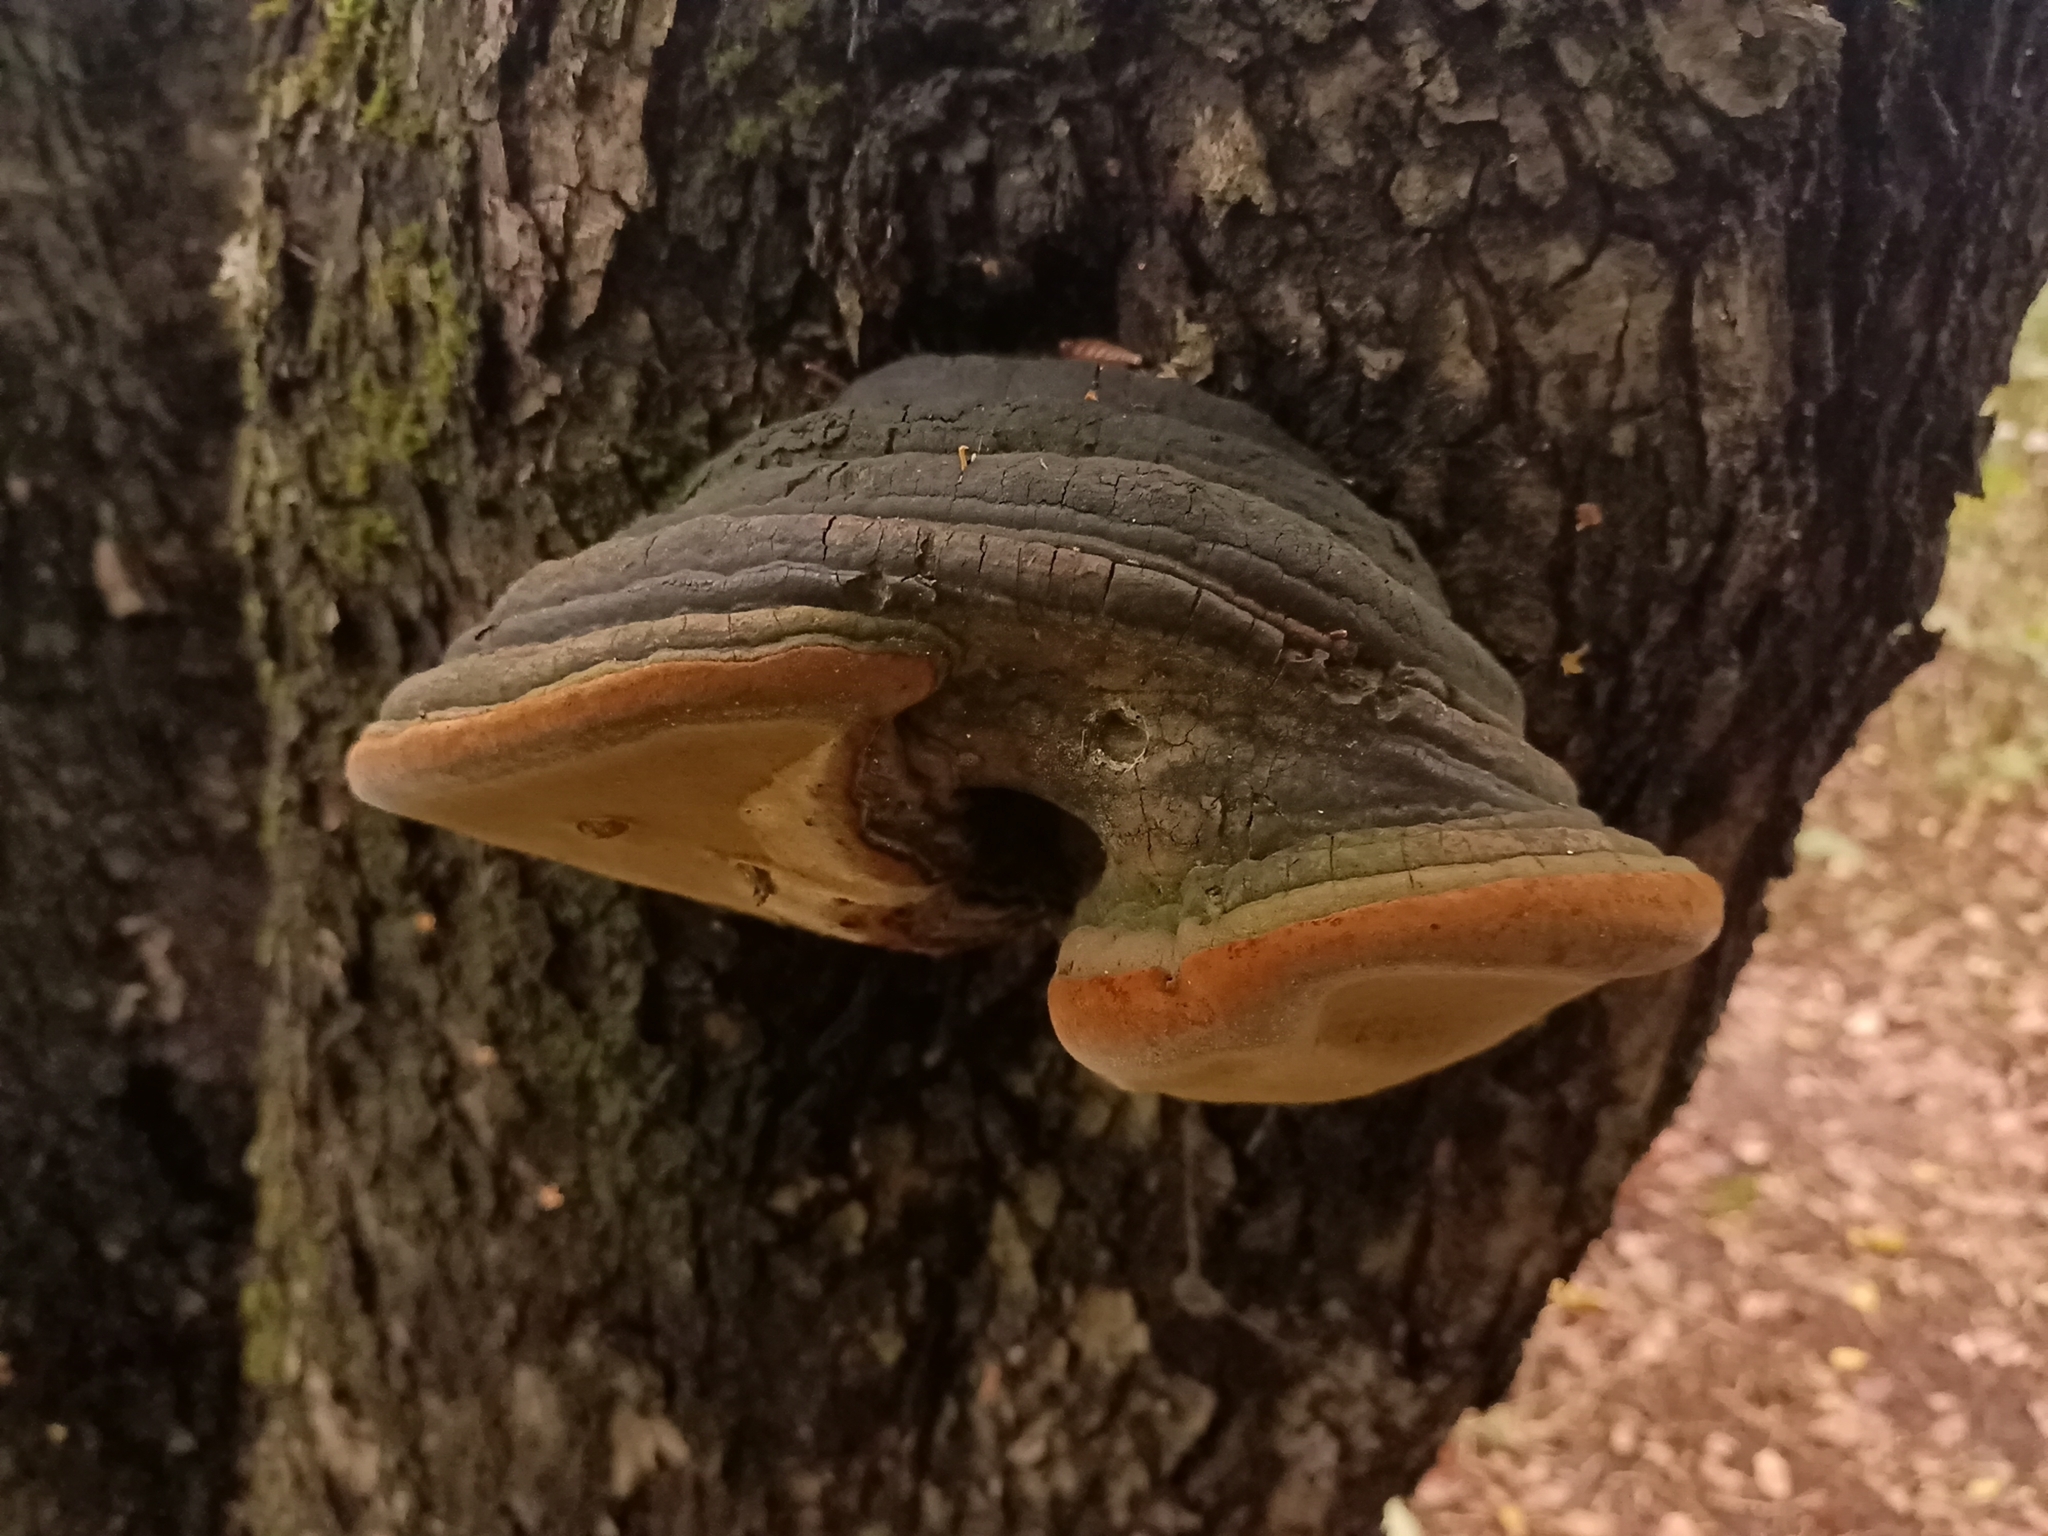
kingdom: Fungi
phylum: Basidiomycota
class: Agaricomycetes
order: Hymenochaetales
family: Hymenochaetaceae
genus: Phellinus
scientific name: Phellinus igniarius
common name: Willow bracket
